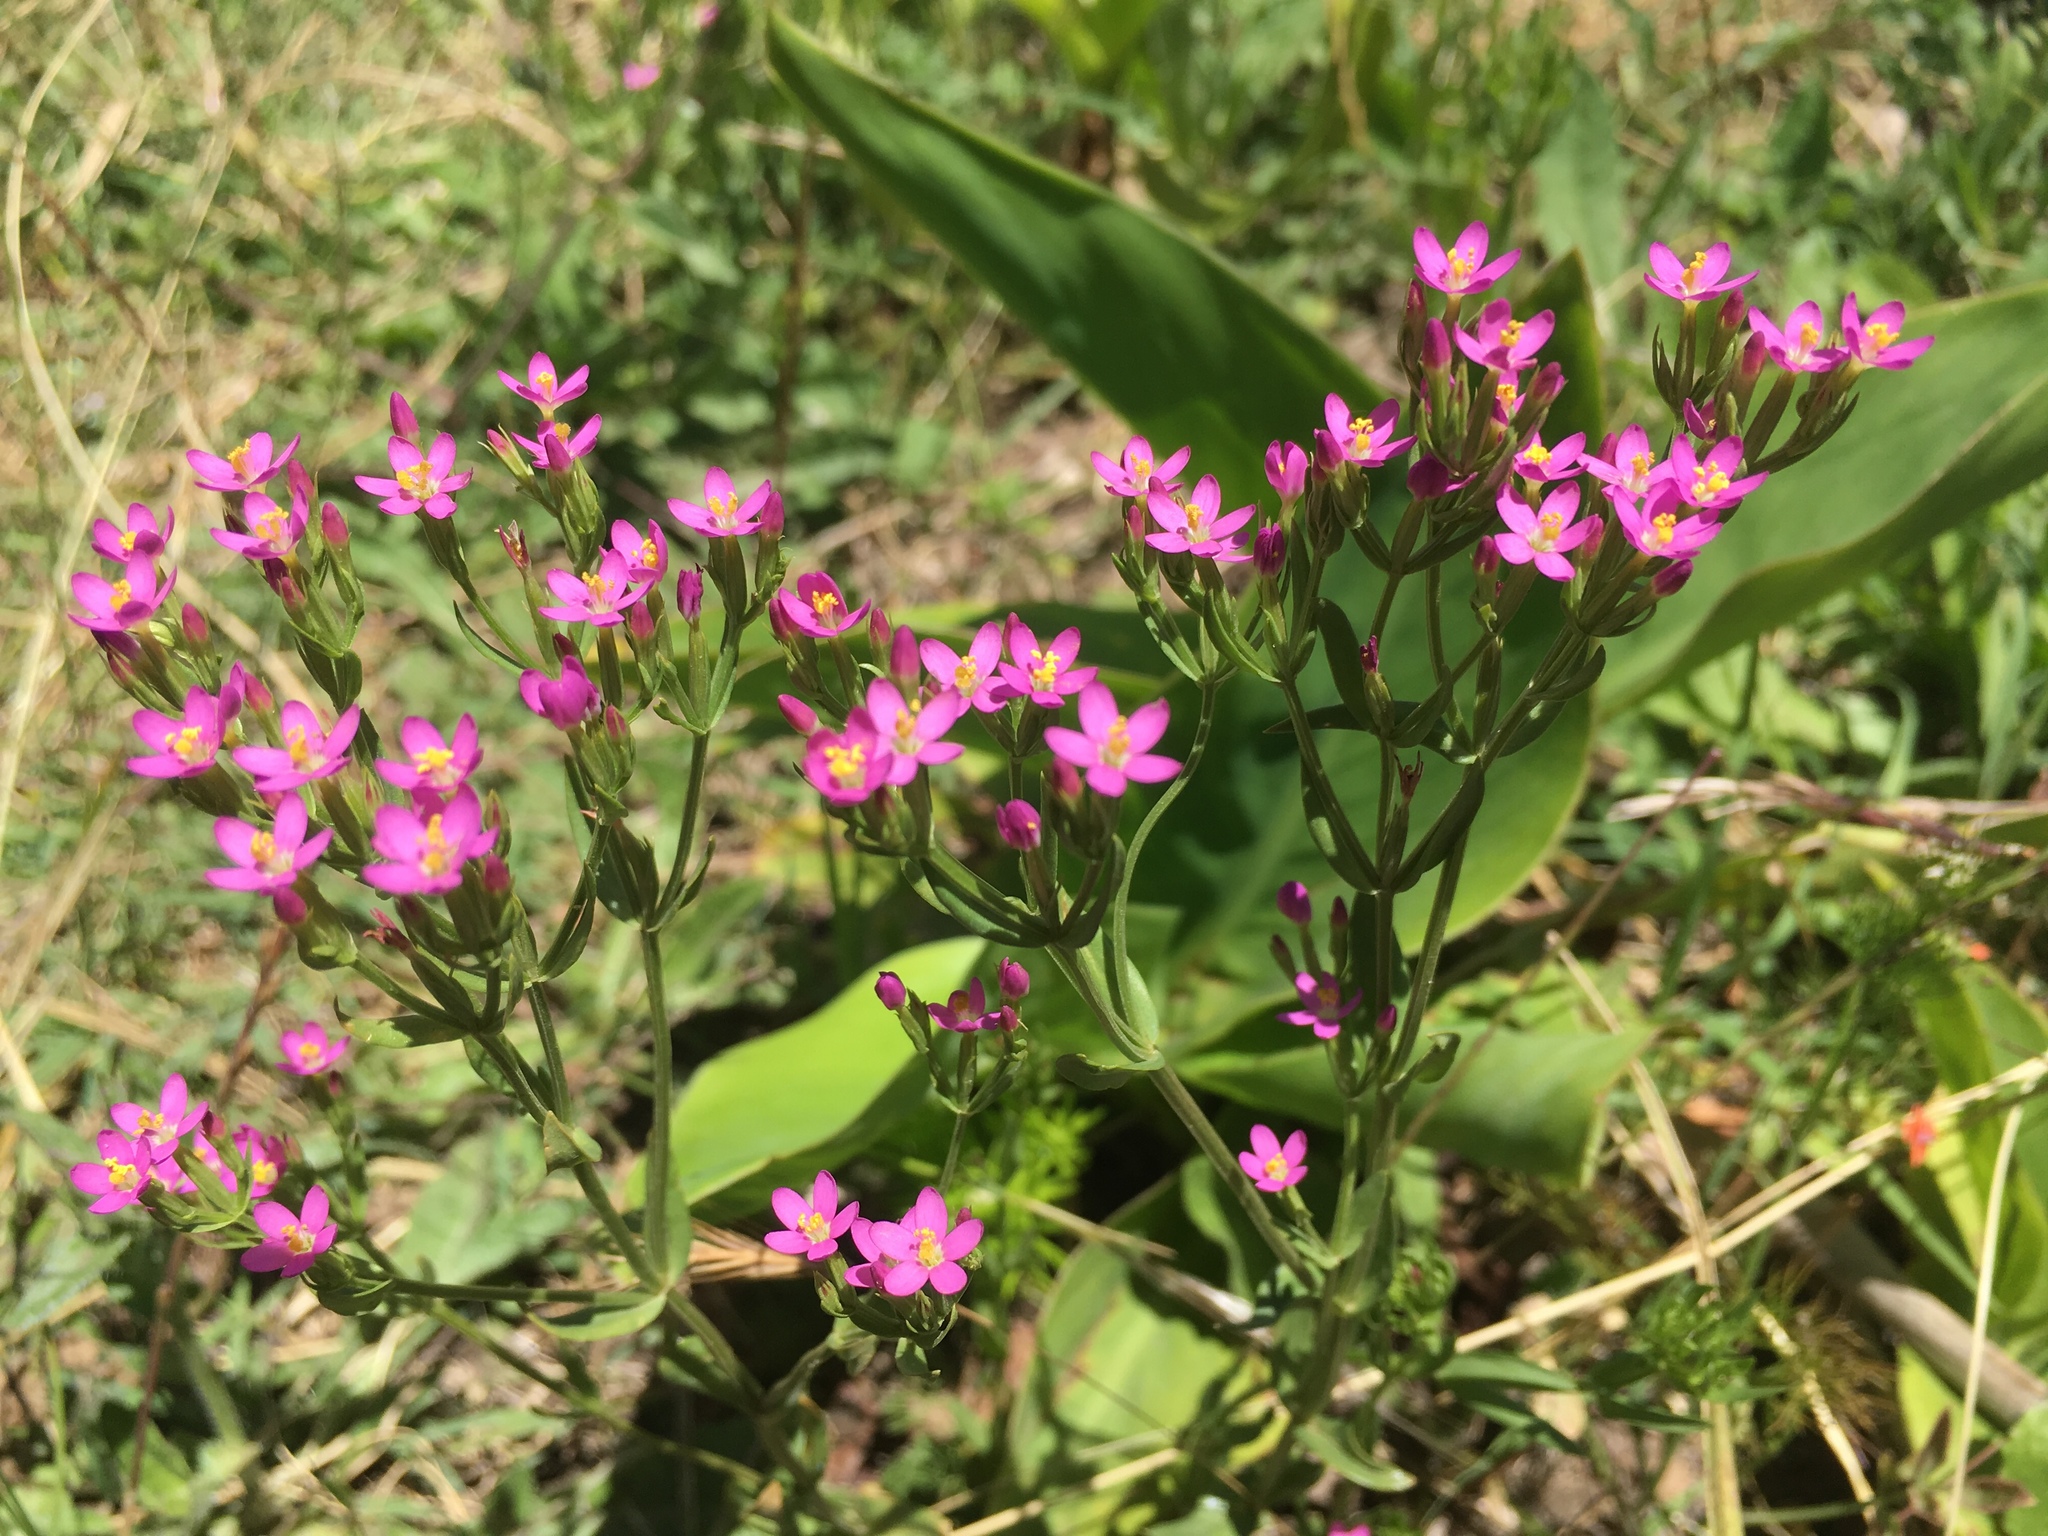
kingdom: Plantae
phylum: Tracheophyta
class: Magnoliopsida
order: Gentianales
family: Gentianaceae
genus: Centaurium
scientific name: Centaurium pulchellum
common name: Lesser centaury
